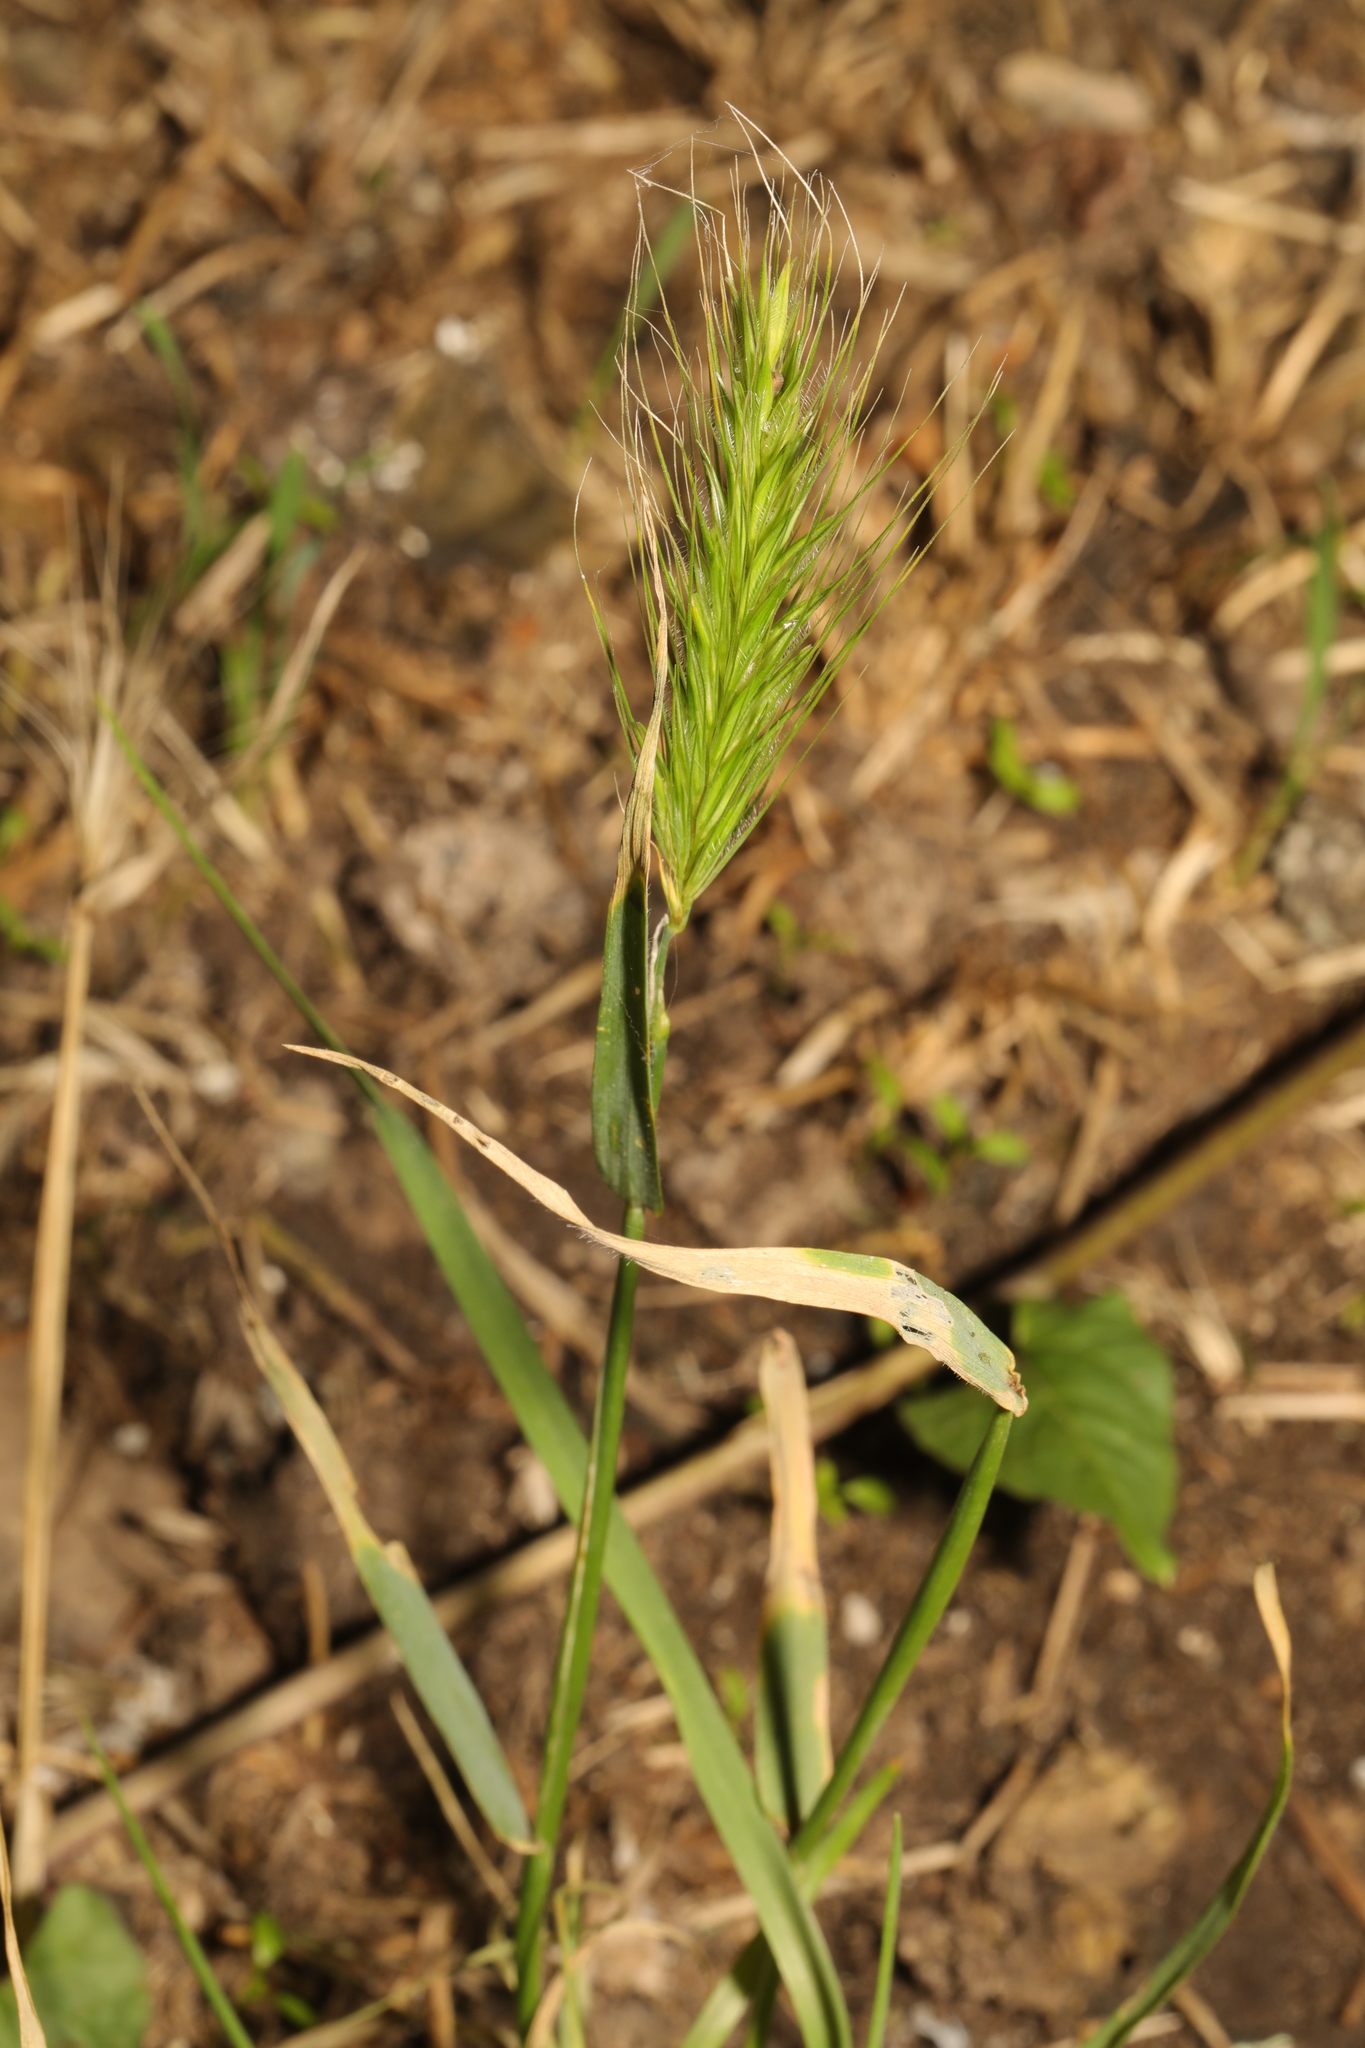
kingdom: Plantae
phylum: Tracheophyta
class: Liliopsida
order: Poales
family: Poaceae
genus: Hordeum
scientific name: Hordeum murinum
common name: Wall barley
